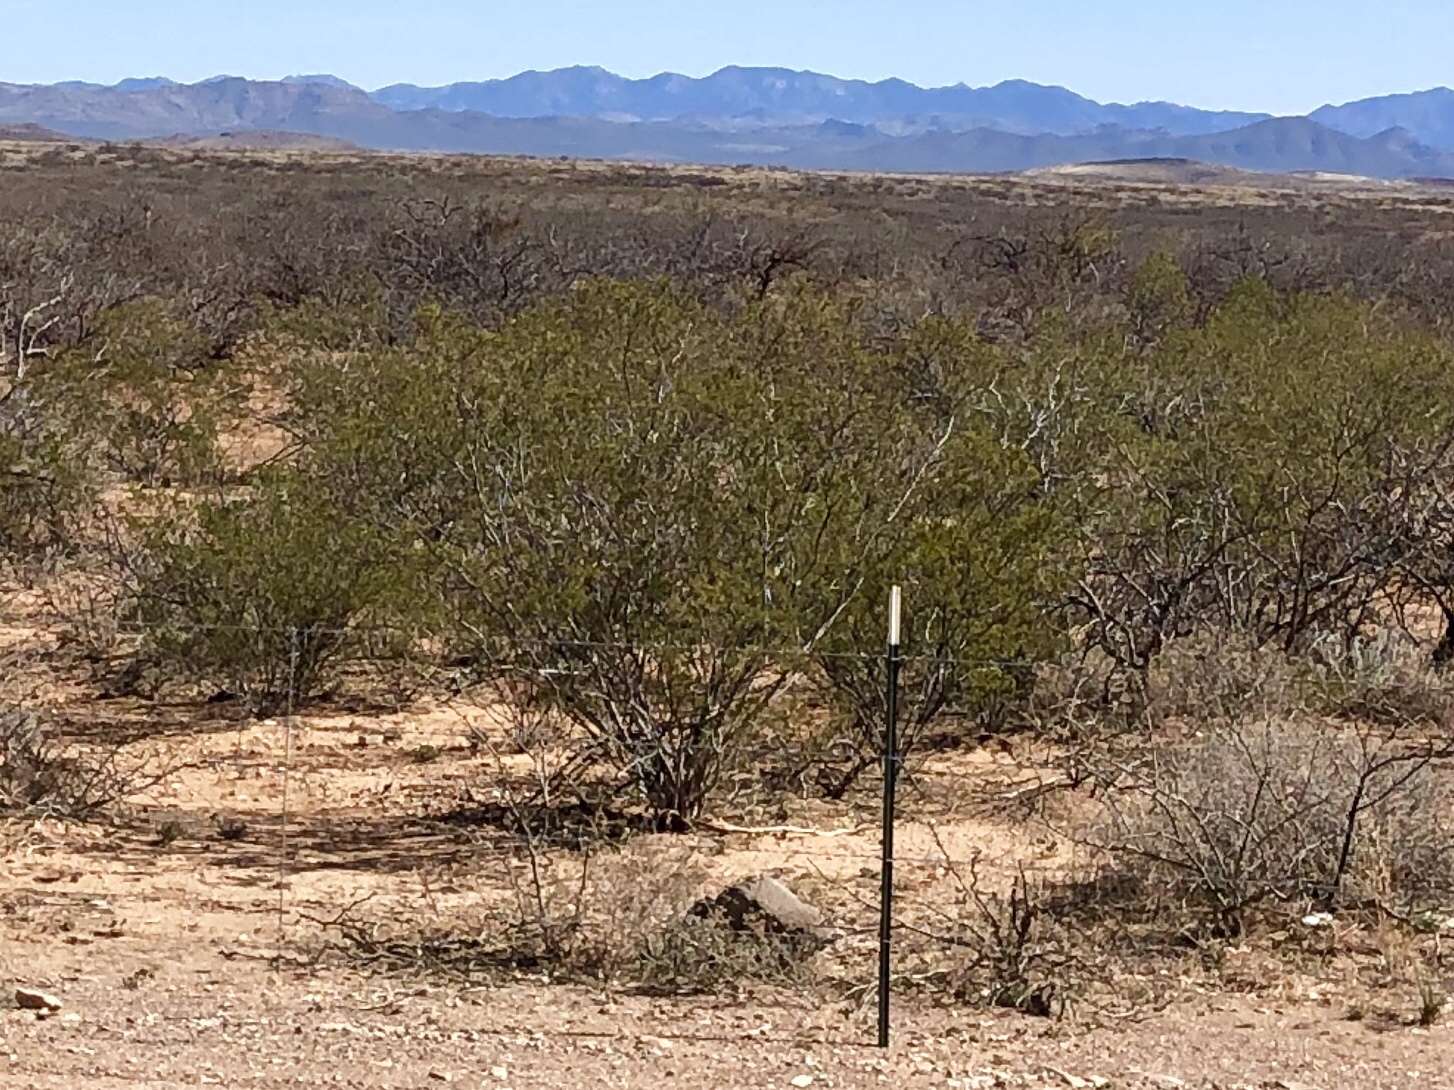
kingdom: Plantae
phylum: Tracheophyta
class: Magnoliopsida
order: Zygophyllales
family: Zygophyllaceae
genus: Larrea
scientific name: Larrea tridentata
